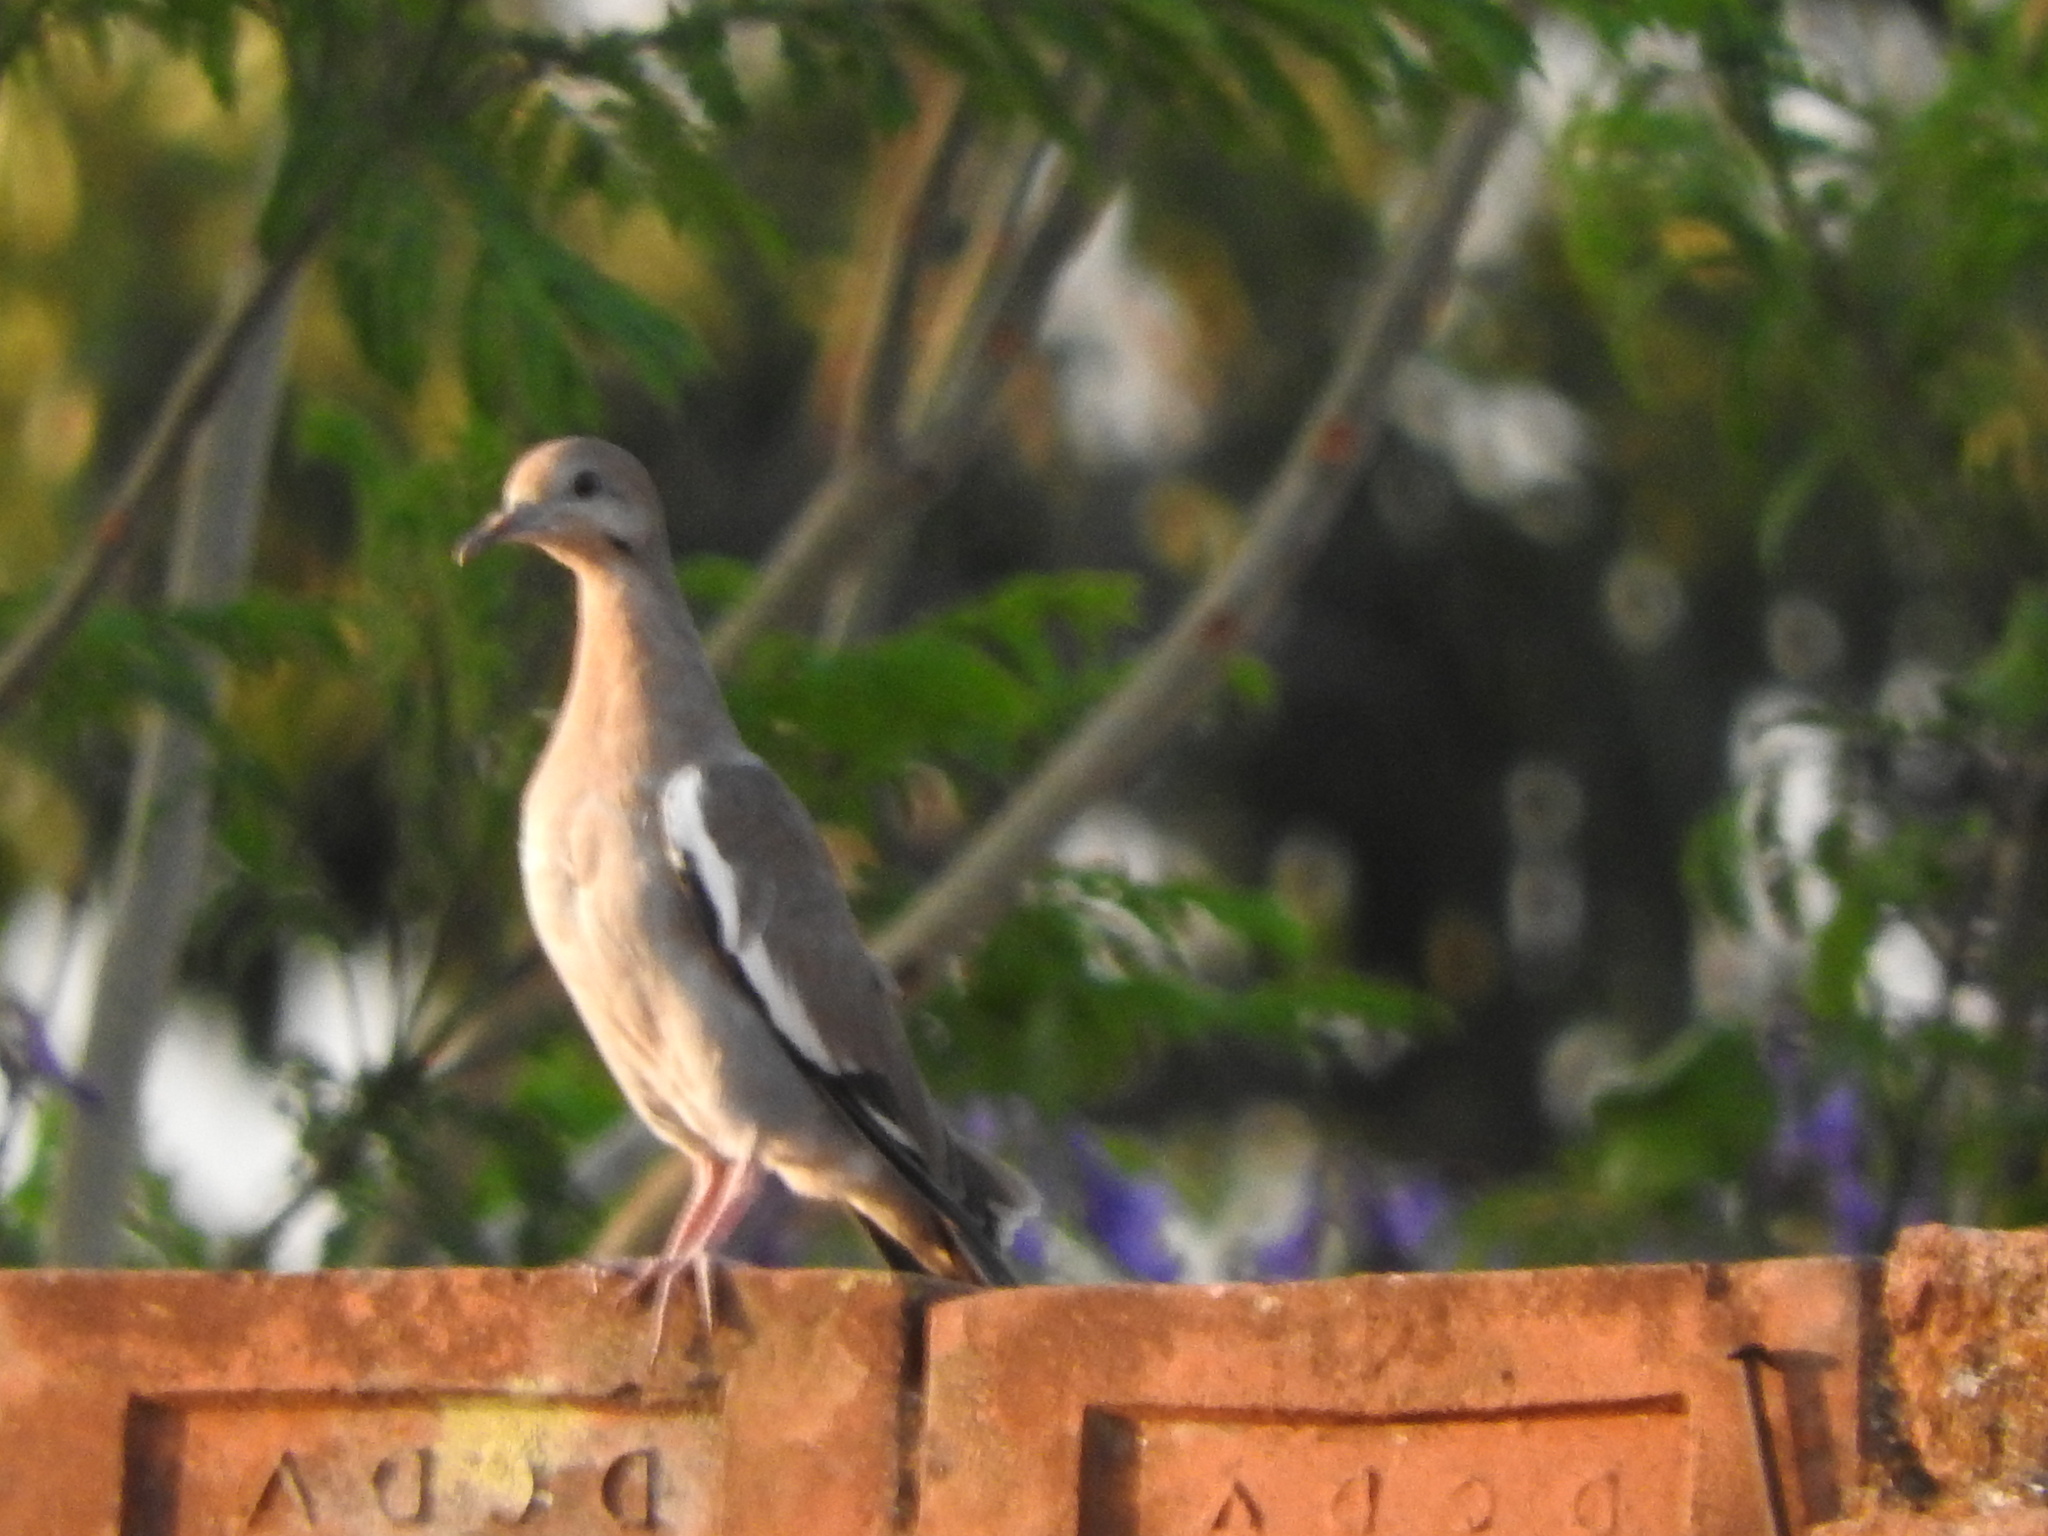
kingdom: Animalia
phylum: Chordata
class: Aves
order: Columbiformes
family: Columbidae
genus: Zenaida
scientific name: Zenaida asiatica
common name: White-winged dove
